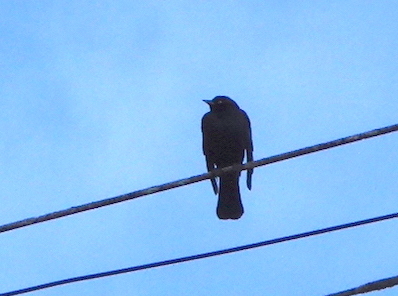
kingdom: Animalia
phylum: Chordata
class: Aves
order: Passeriformes
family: Icteridae
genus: Euphagus
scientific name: Euphagus cyanocephalus
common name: Brewer's blackbird
